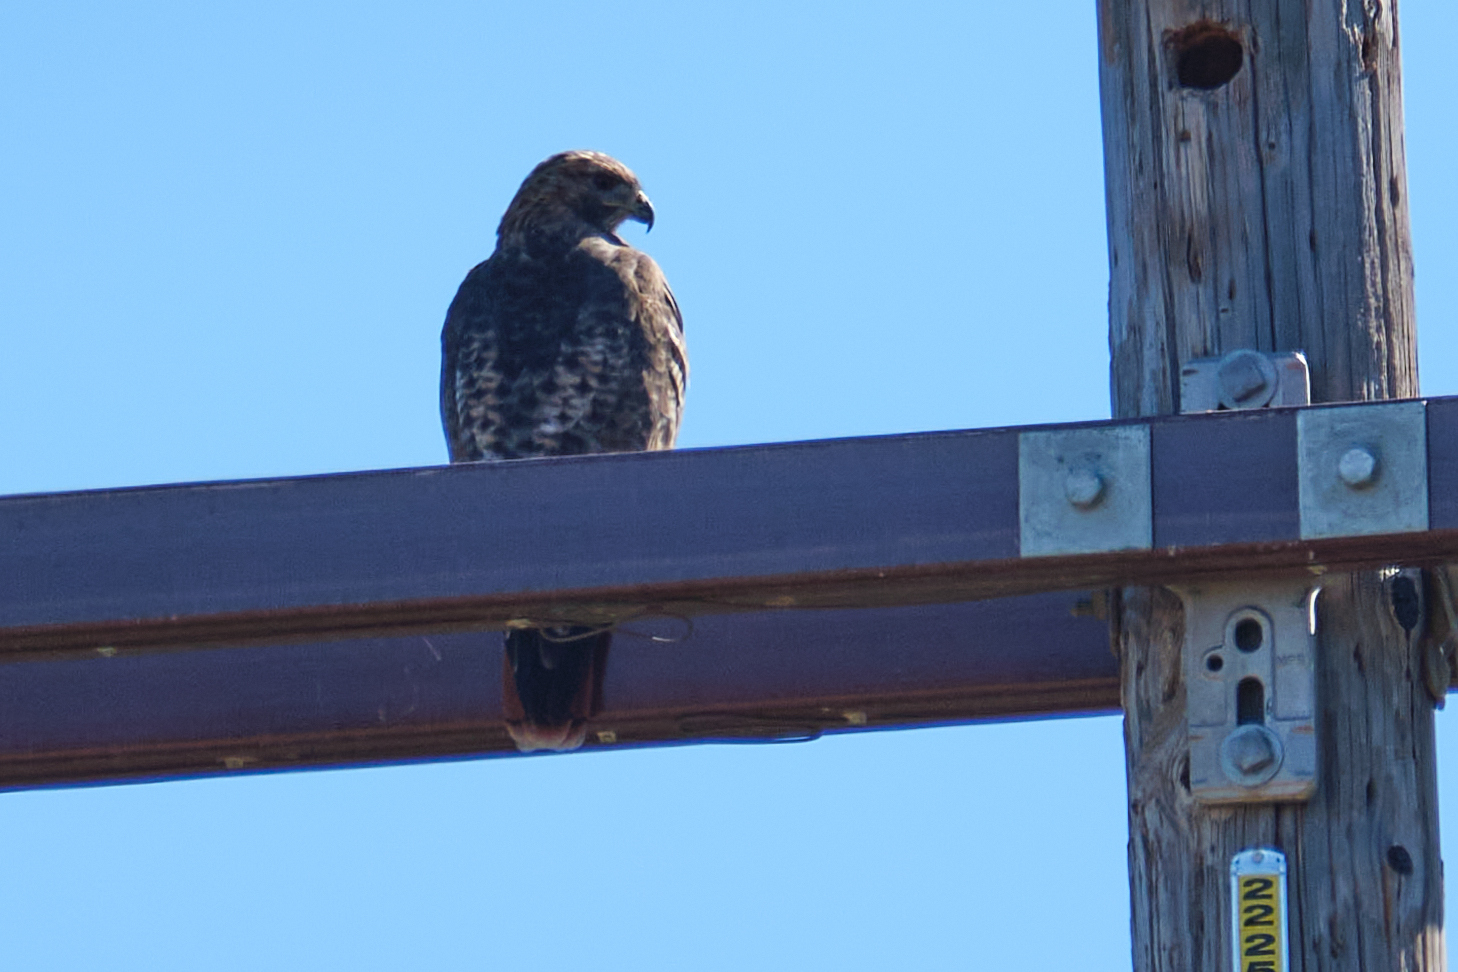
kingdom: Animalia
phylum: Chordata
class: Aves
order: Accipitriformes
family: Accipitridae
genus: Buteo
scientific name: Buteo jamaicensis
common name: Red-tailed hawk
